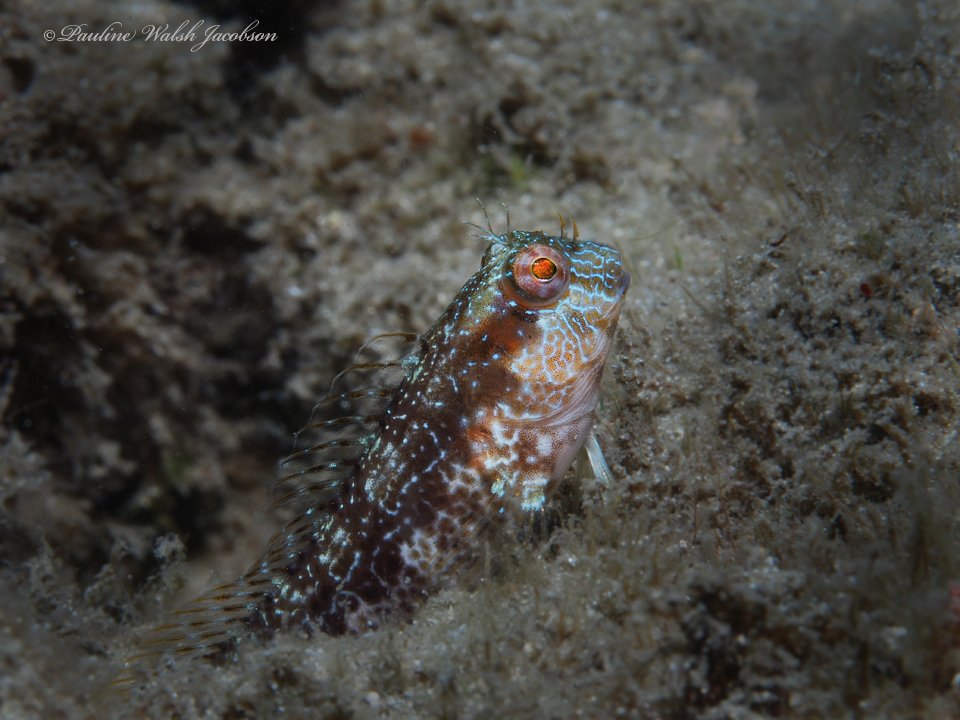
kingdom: Animalia
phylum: Chordata
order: Perciformes
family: Blenniidae
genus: Parablennius
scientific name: Parablennius marmoreus
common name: Seaweed blenny
